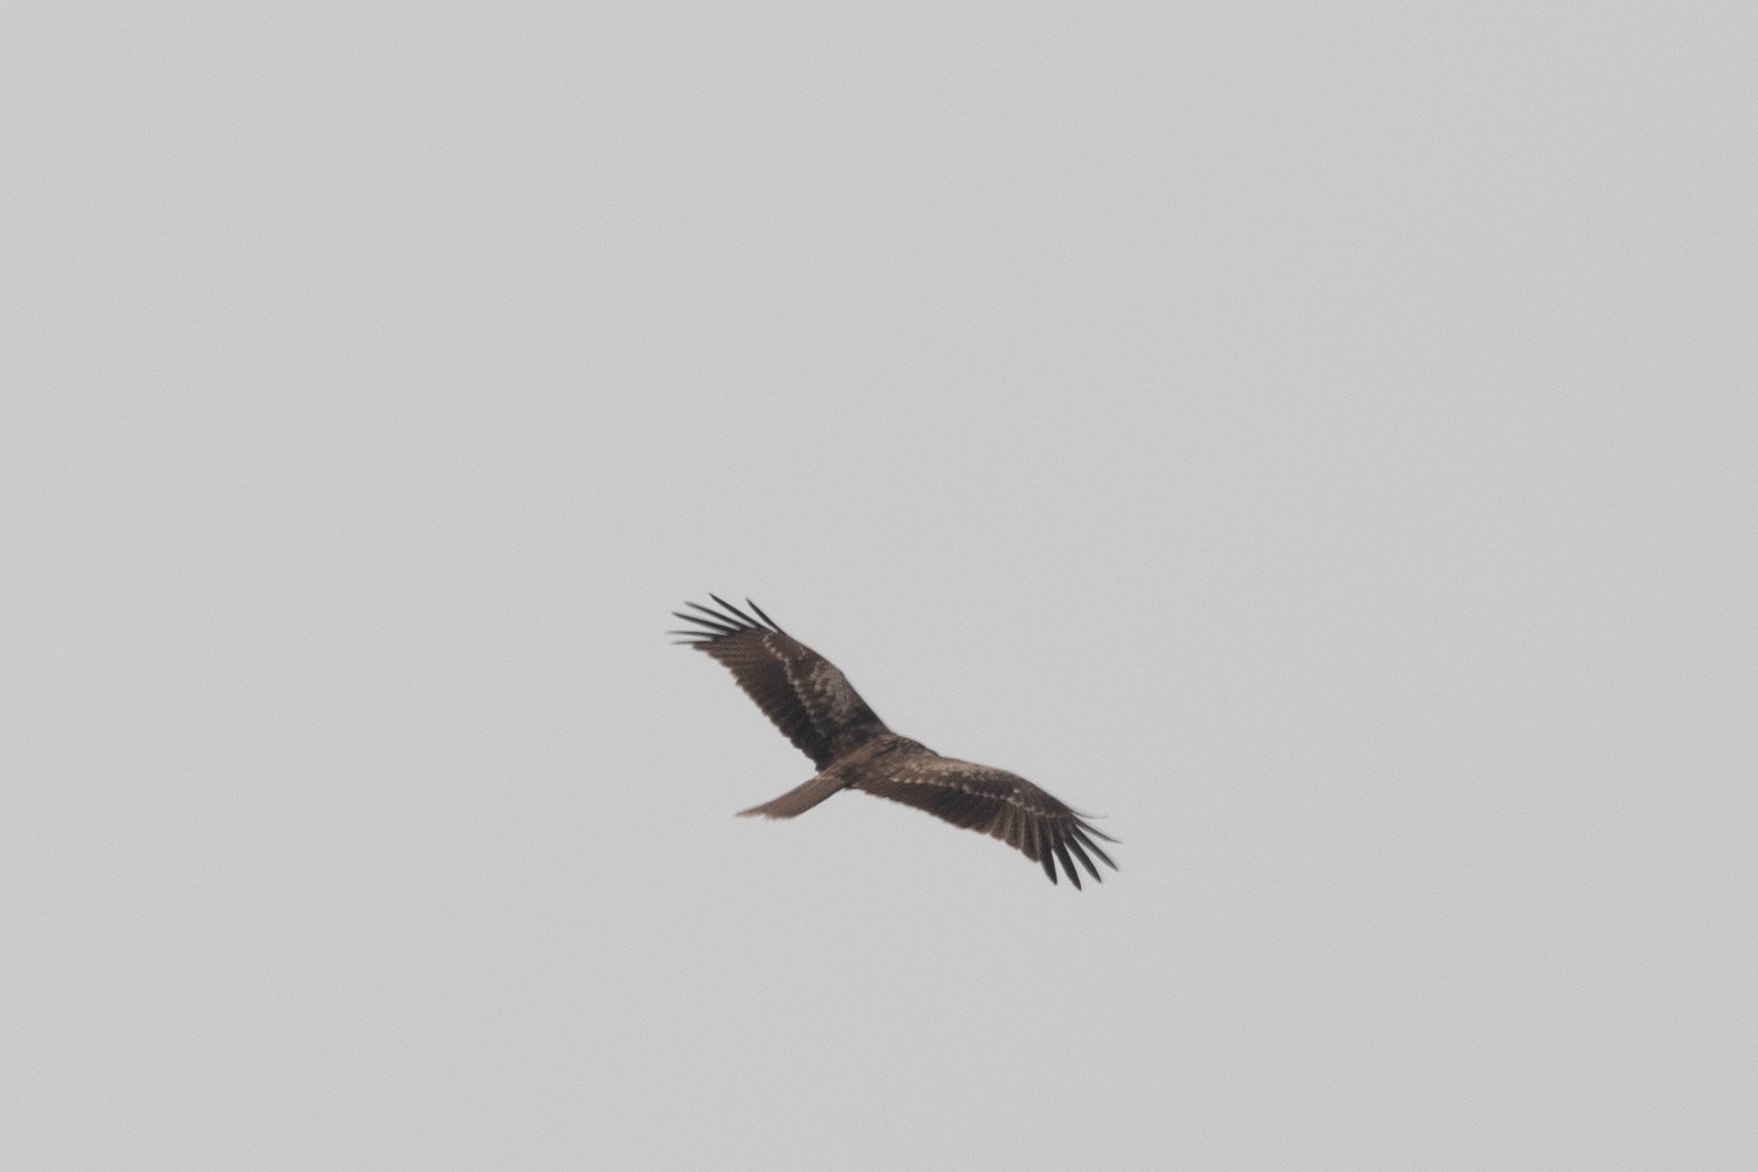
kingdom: Animalia
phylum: Chordata
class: Aves
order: Accipitriformes
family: Accipitridae
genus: Milvus
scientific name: Milvus migrans
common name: Black kite
